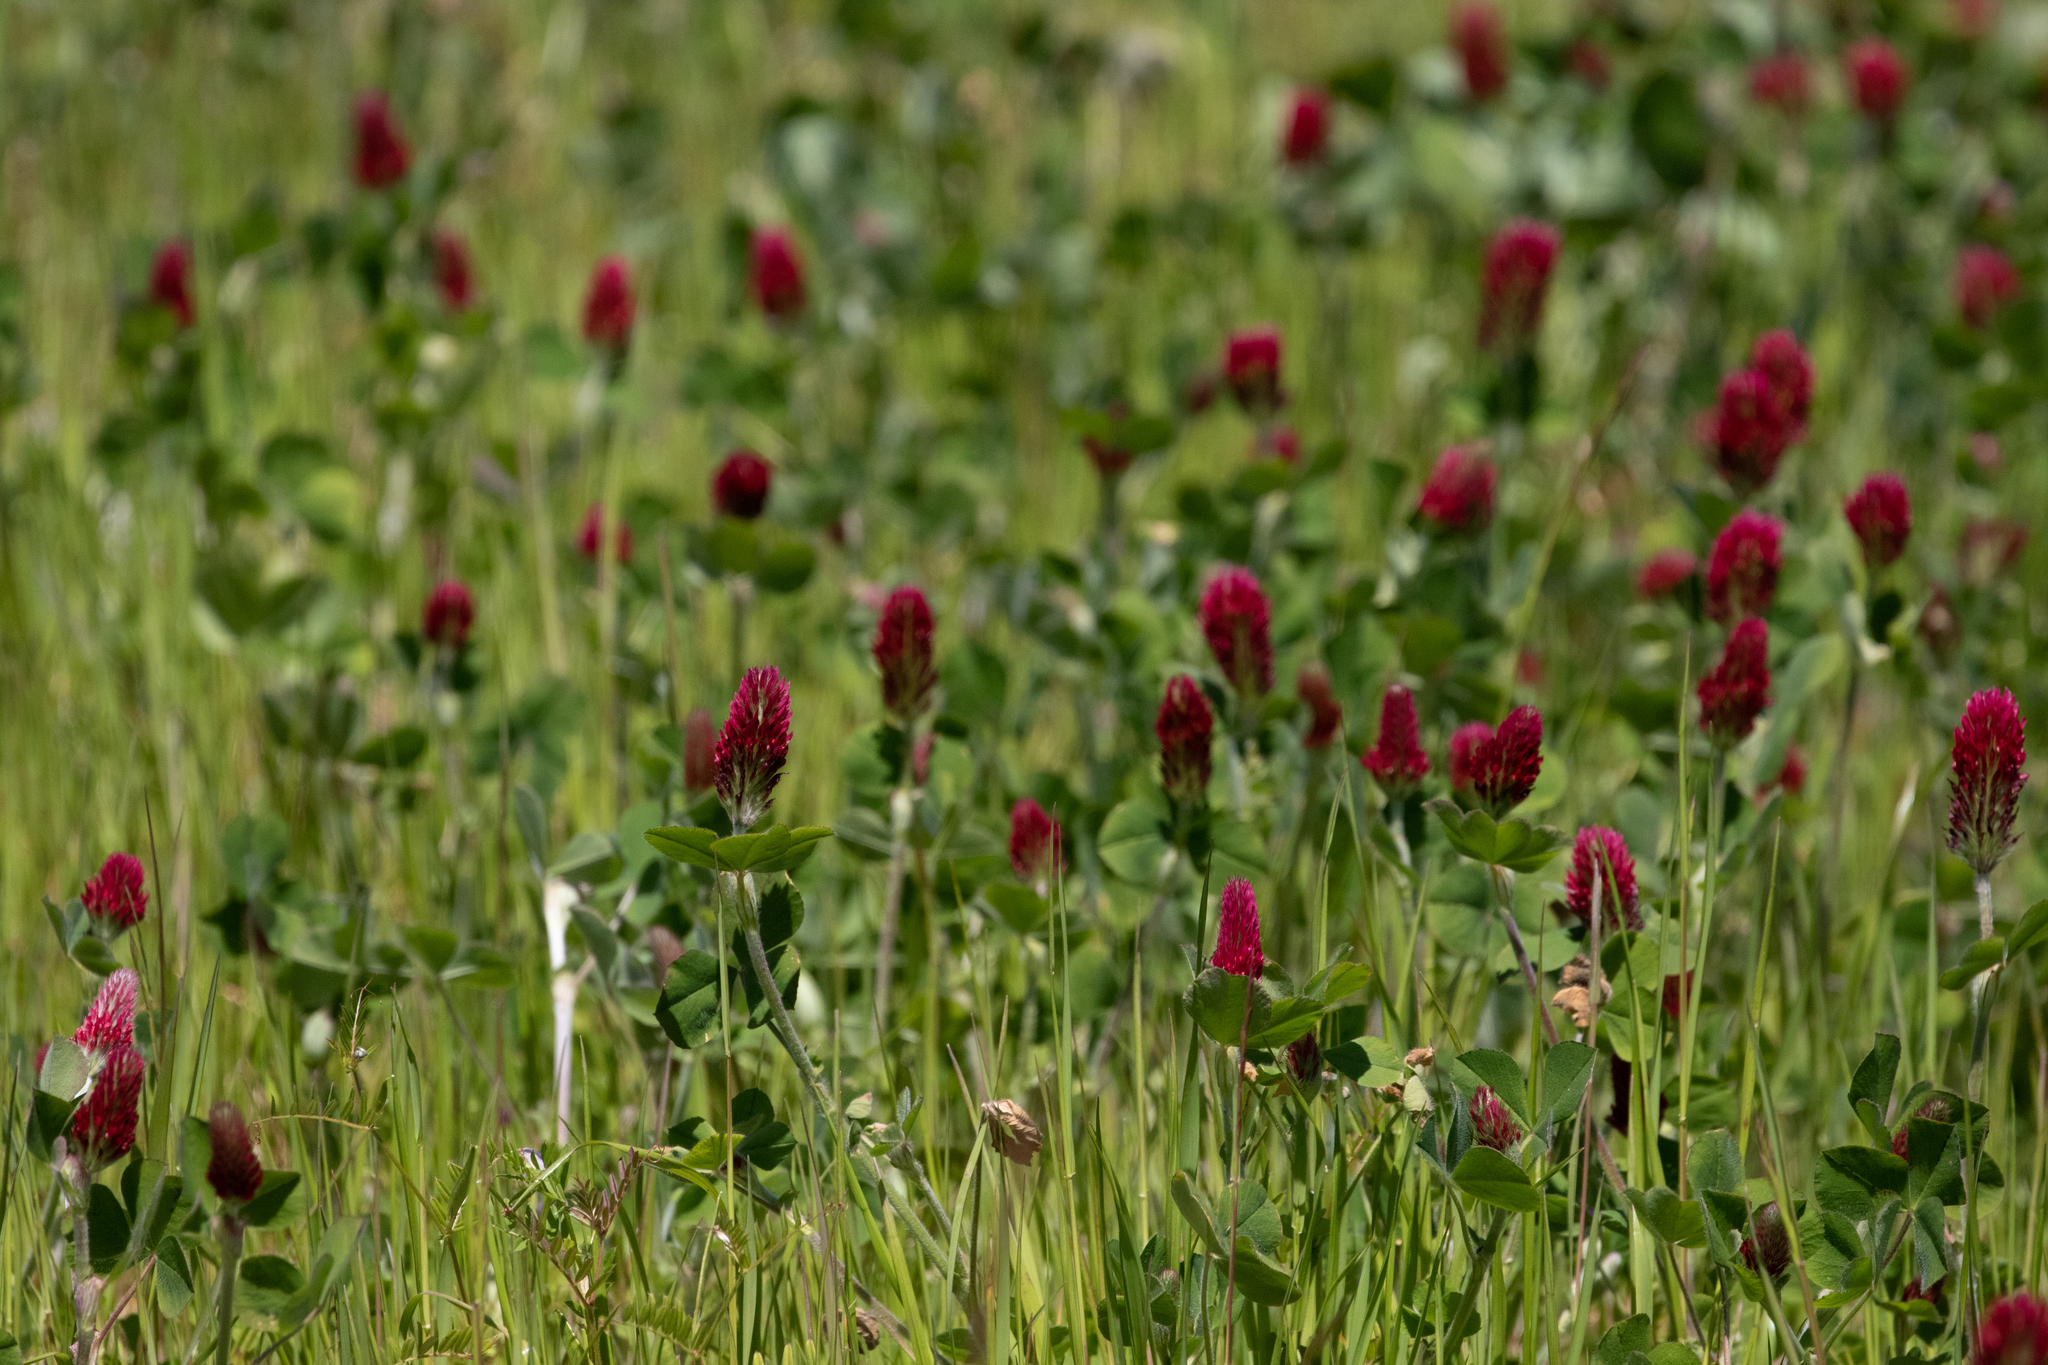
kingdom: Plantae
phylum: Tracheophyta
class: Magnoliopsida
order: Fabales
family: Fabaceae
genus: Trifolium
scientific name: Trifolium incarnatum
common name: Crimson clover
